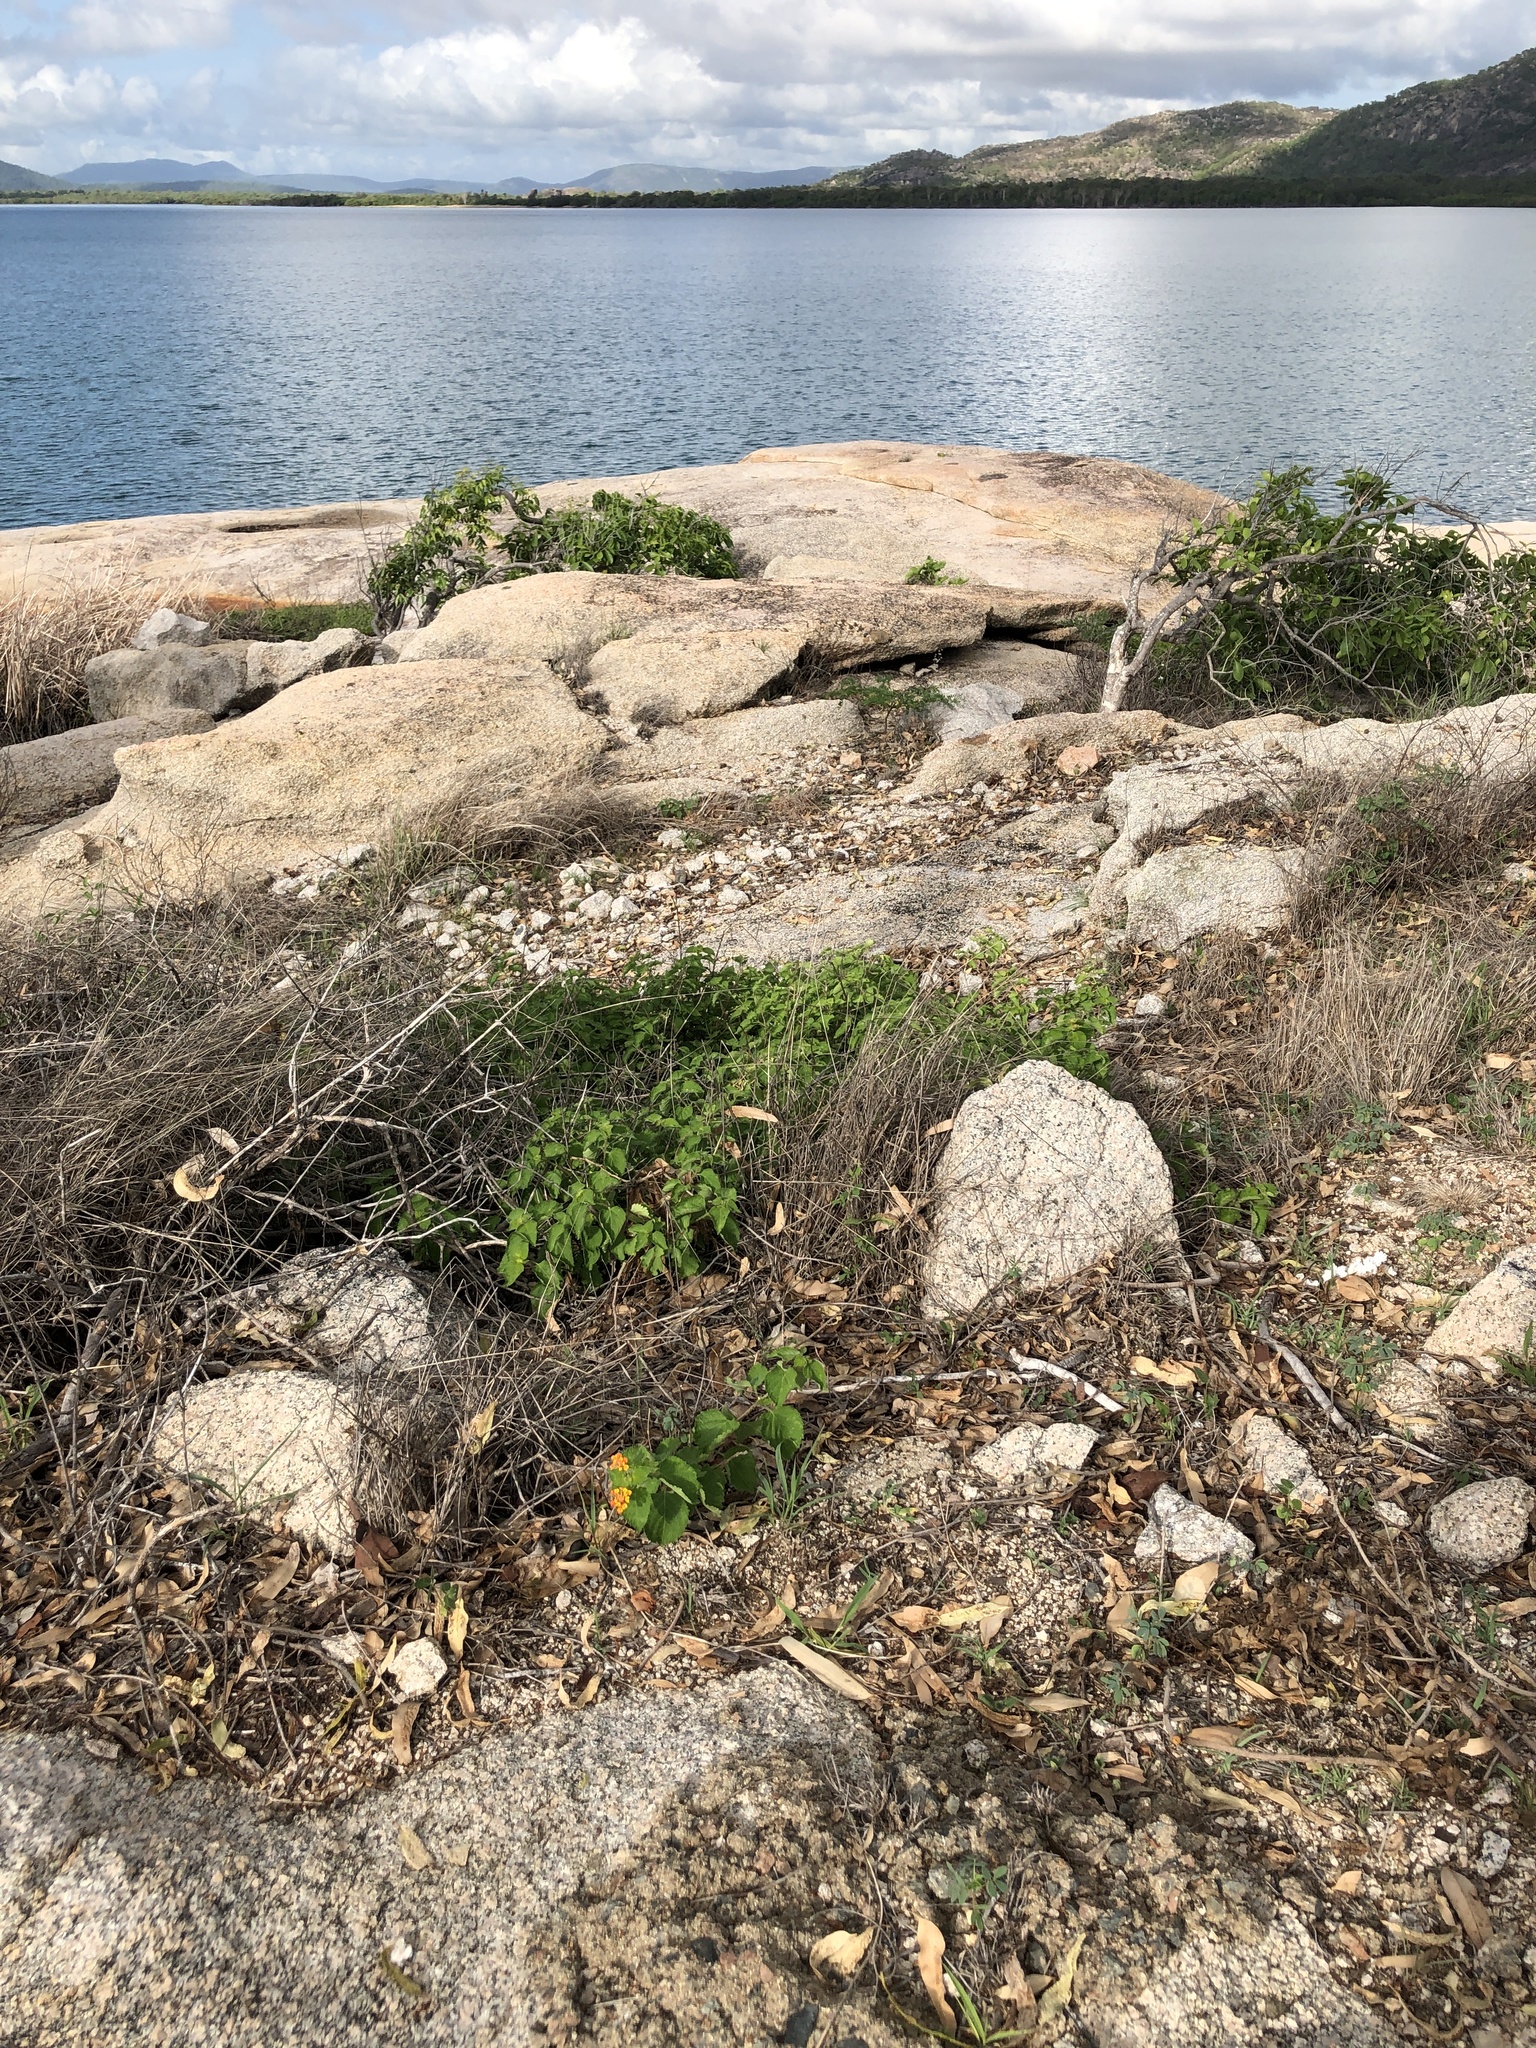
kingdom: Plantae
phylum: Tracheophyta
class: Magnoliopsida
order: Lamiales
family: Verbenaceae
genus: Lantana
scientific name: Lantana camara
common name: Lantana
